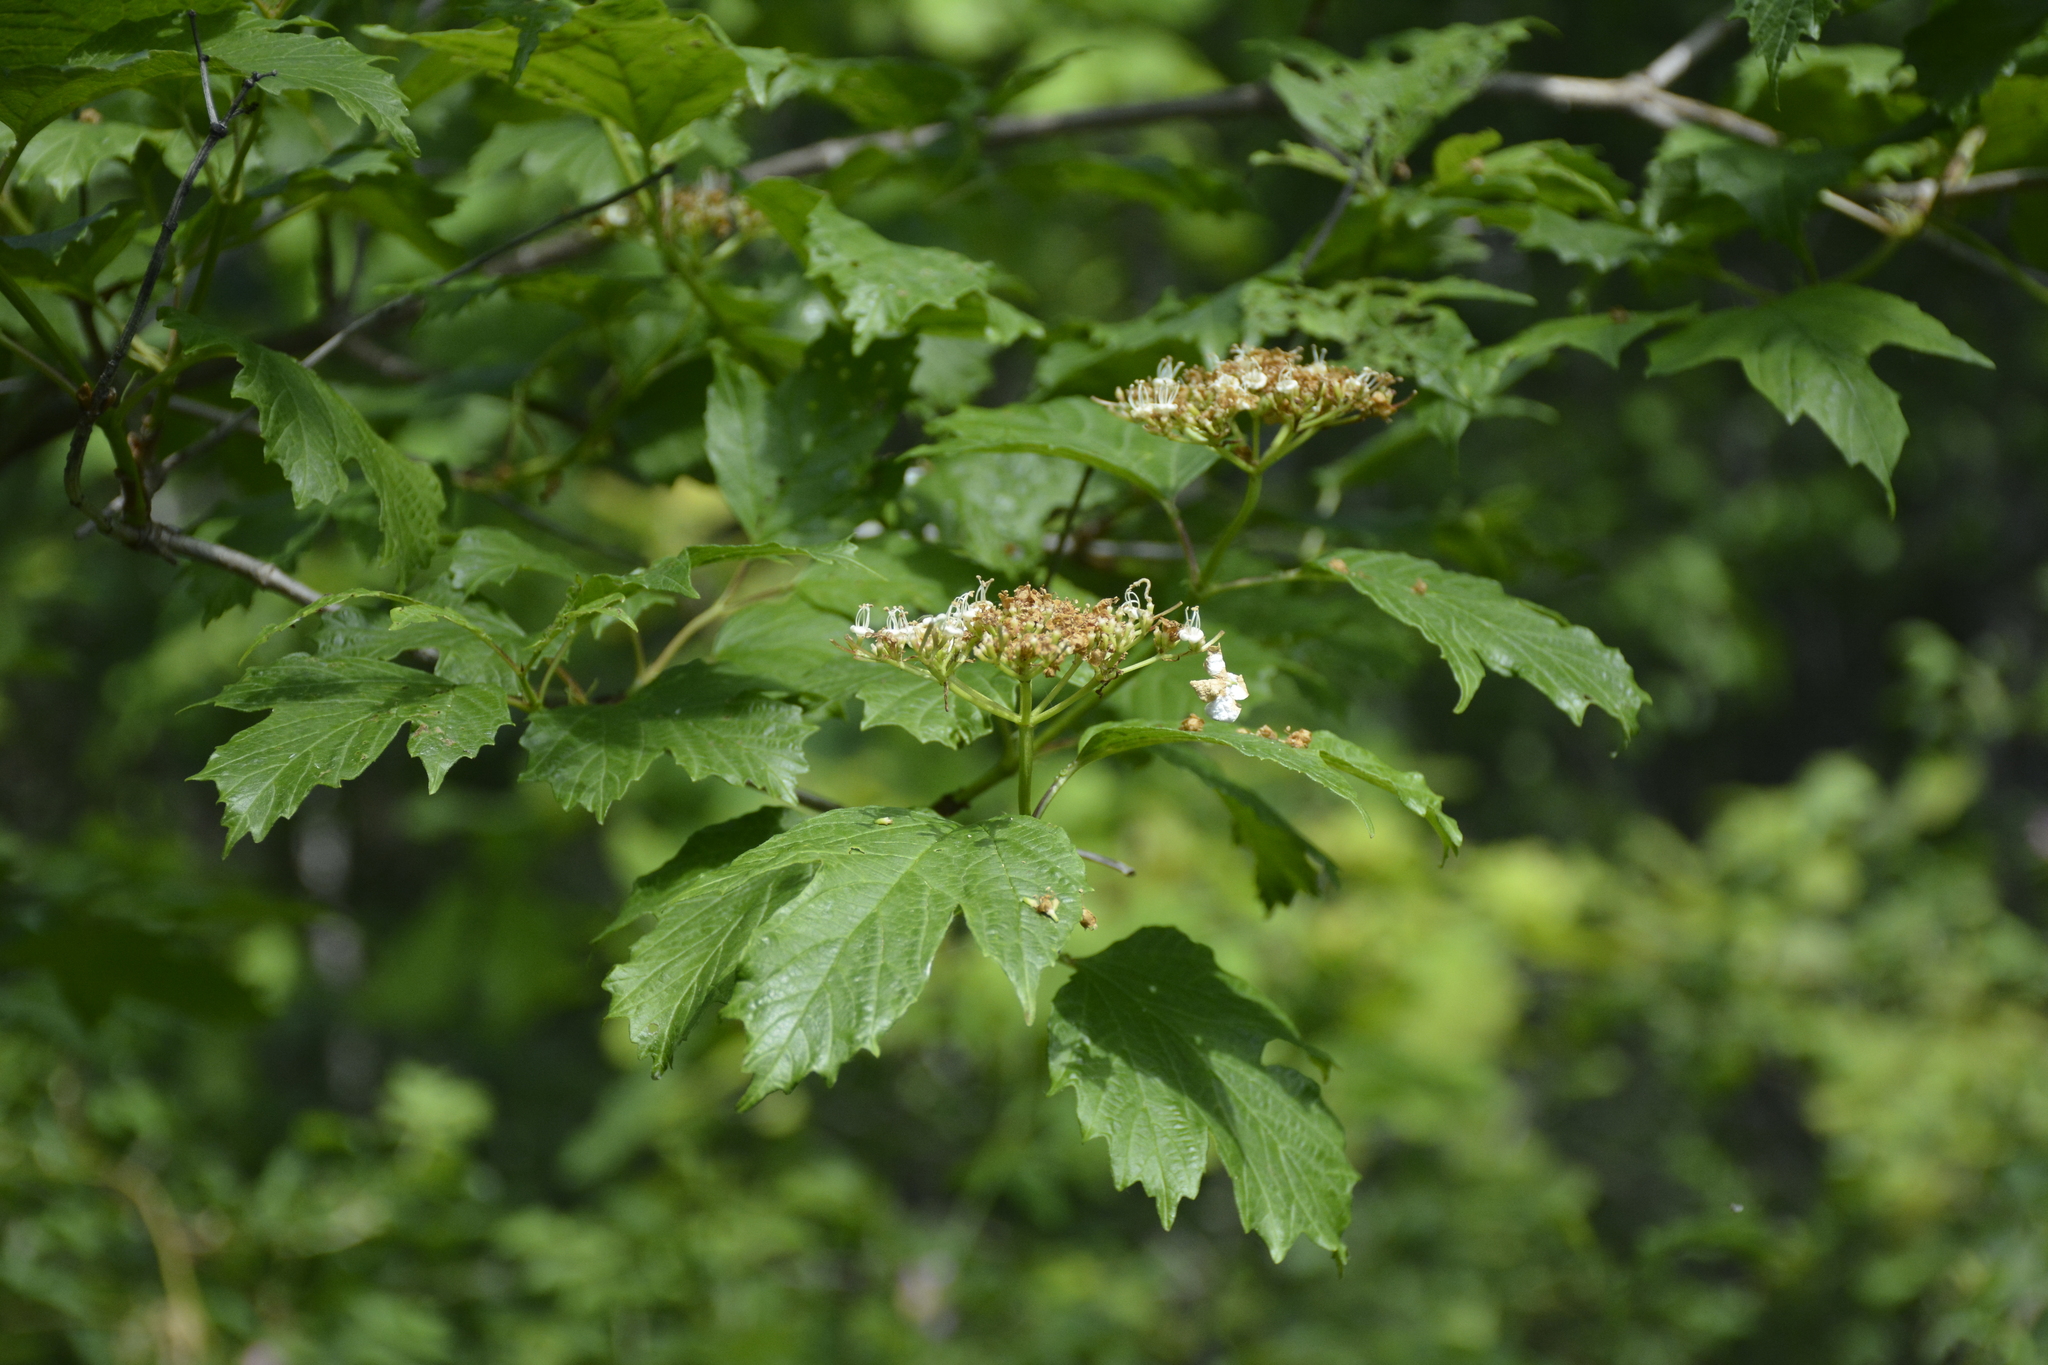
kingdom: Plantae
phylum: Tracheophyta
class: Magnoliopsida
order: Dipsacales
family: Viburnaceae
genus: Viburnum
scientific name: Viburnum opulus
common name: Guelder-rose
